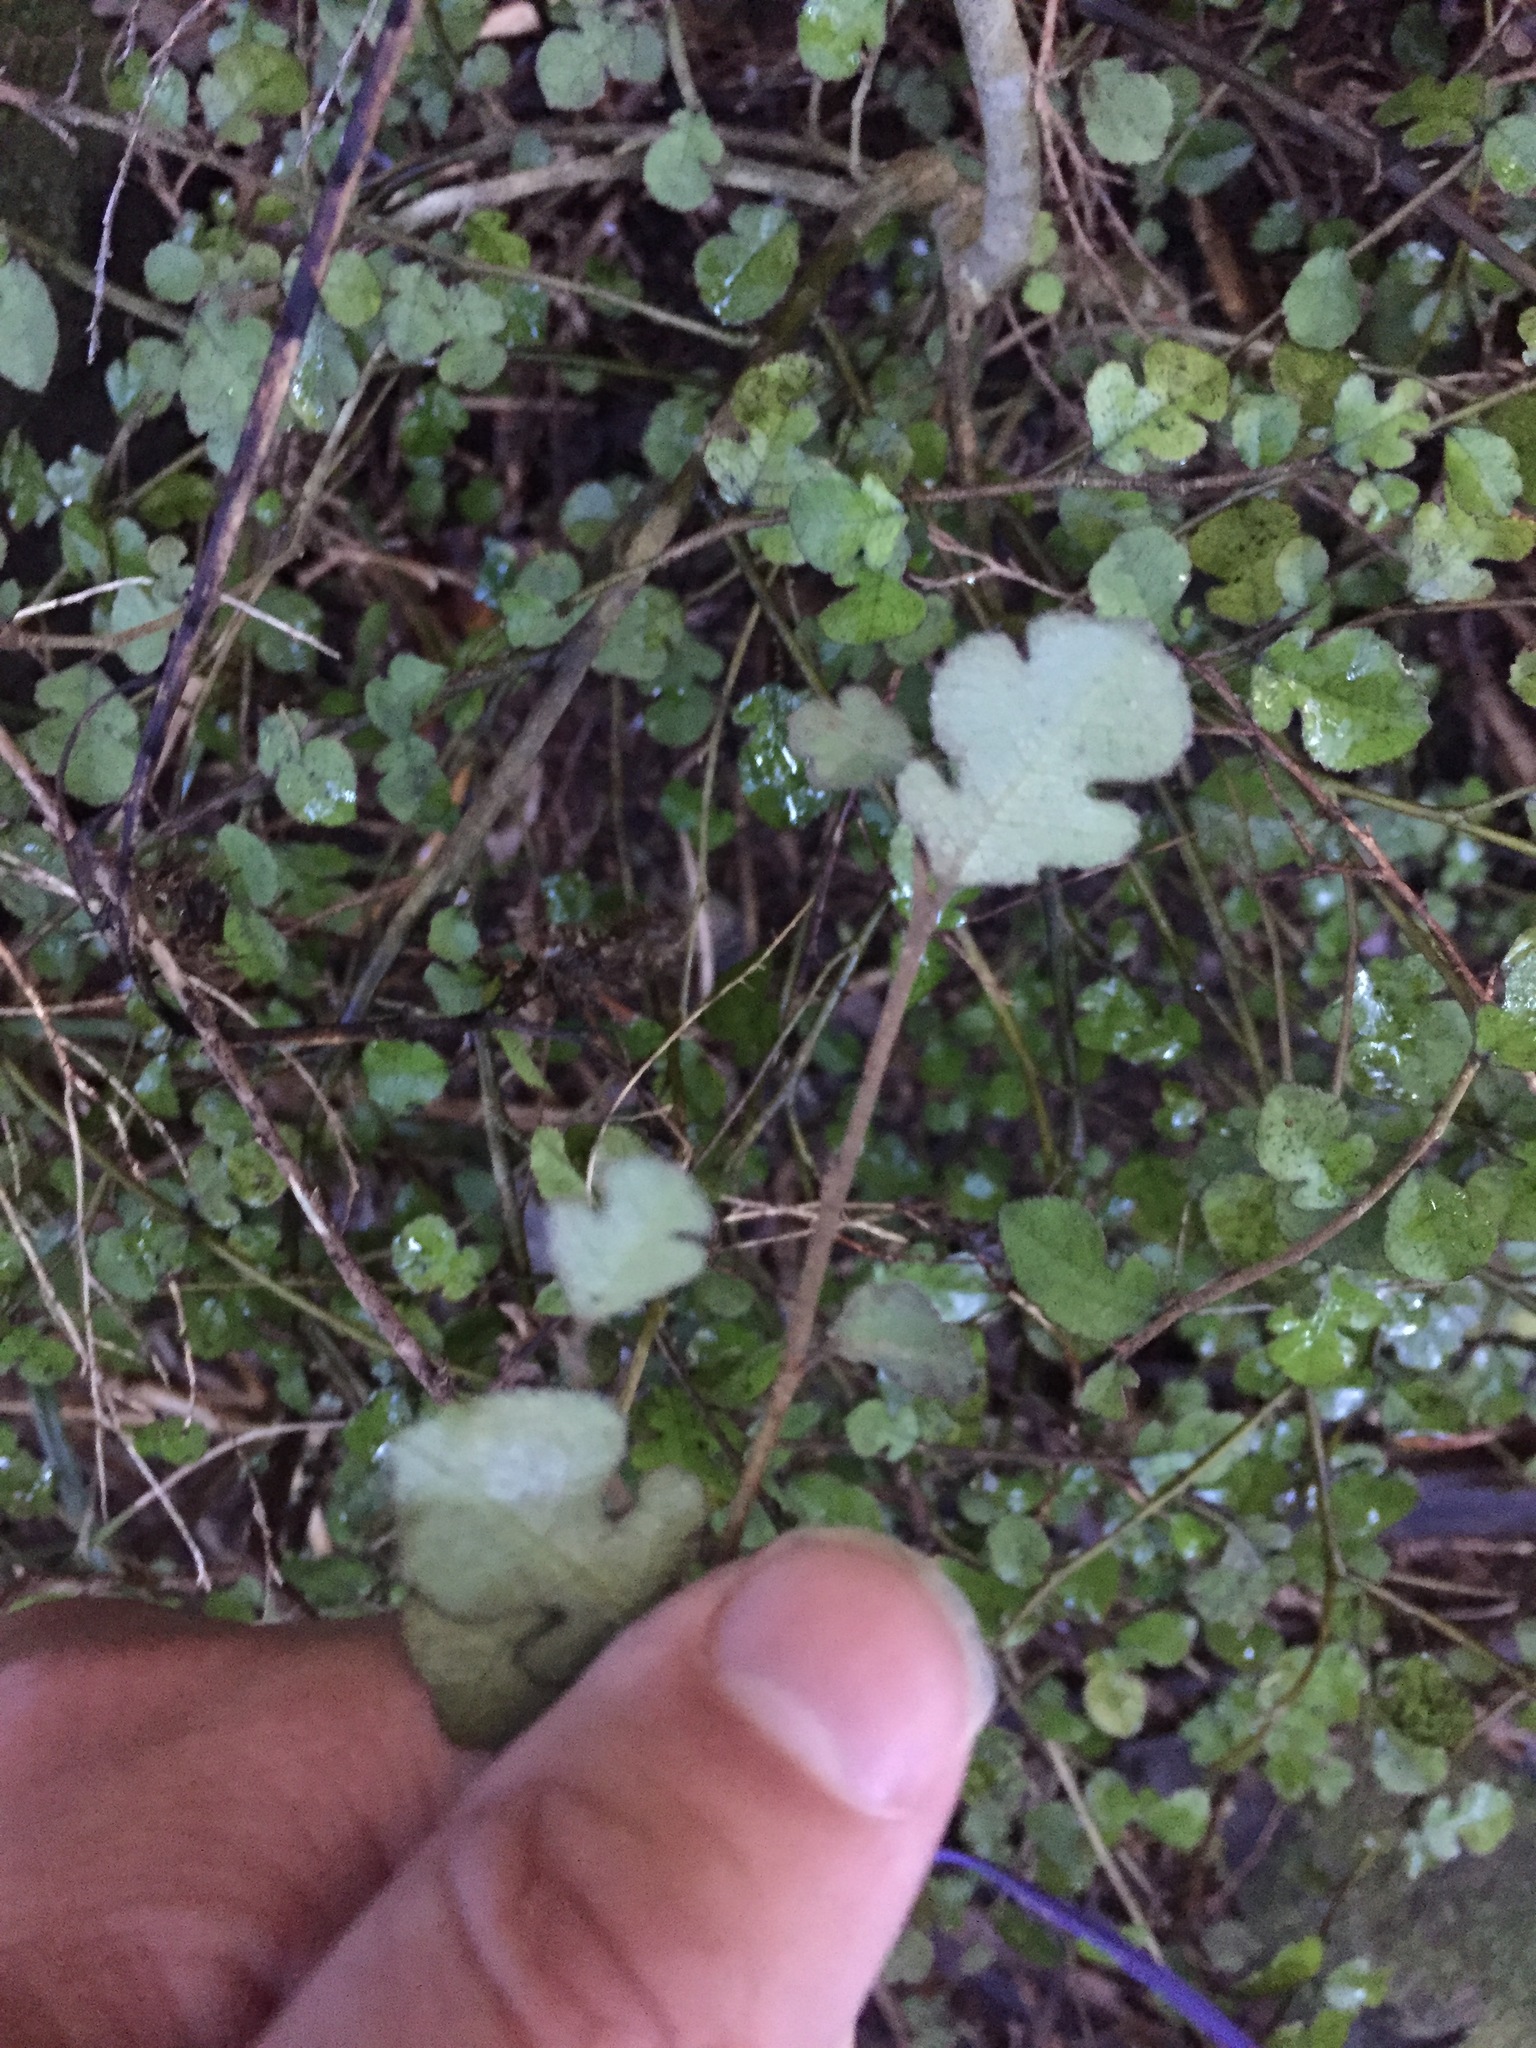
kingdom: Plantae
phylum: Tracheophyta
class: Magnoliopsida
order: Rosales
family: Moraceae
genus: Paratrophis
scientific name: Paratrophis microphylla
